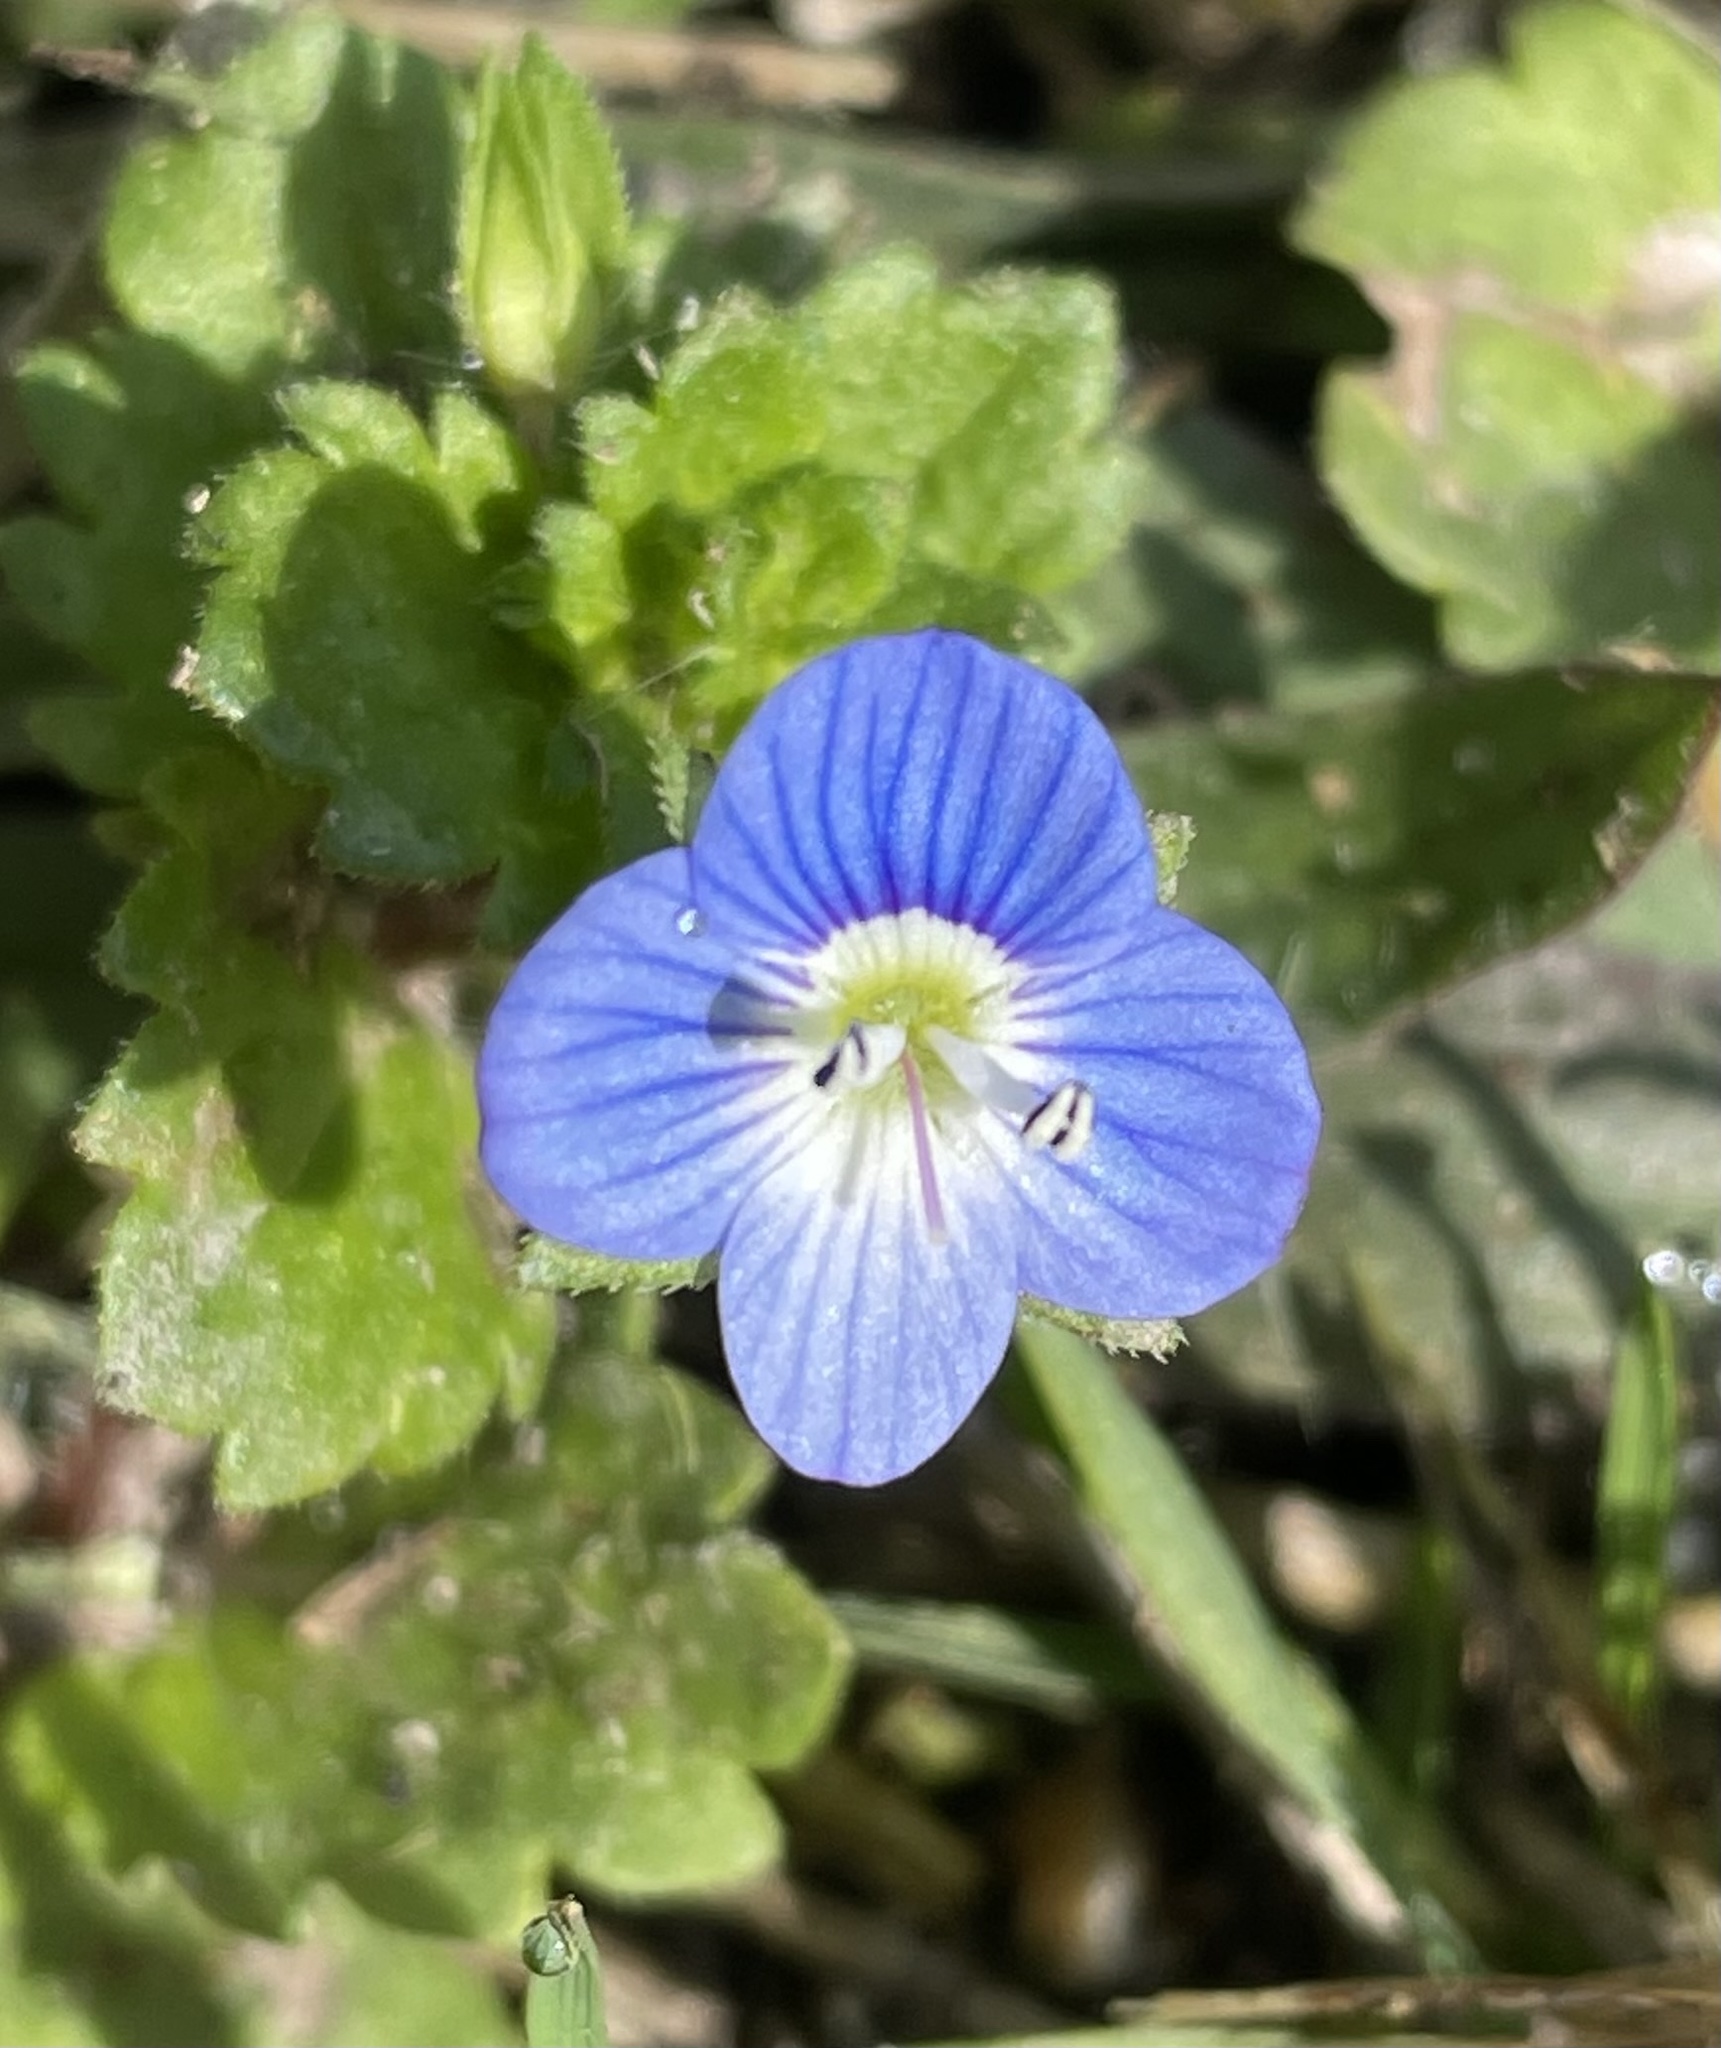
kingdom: Plantae
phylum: Tracheophyta
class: Magnoliopsida
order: Lamiales
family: Plantaginaceae
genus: Veronica
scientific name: Veronica persica
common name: Common field-speedwell
